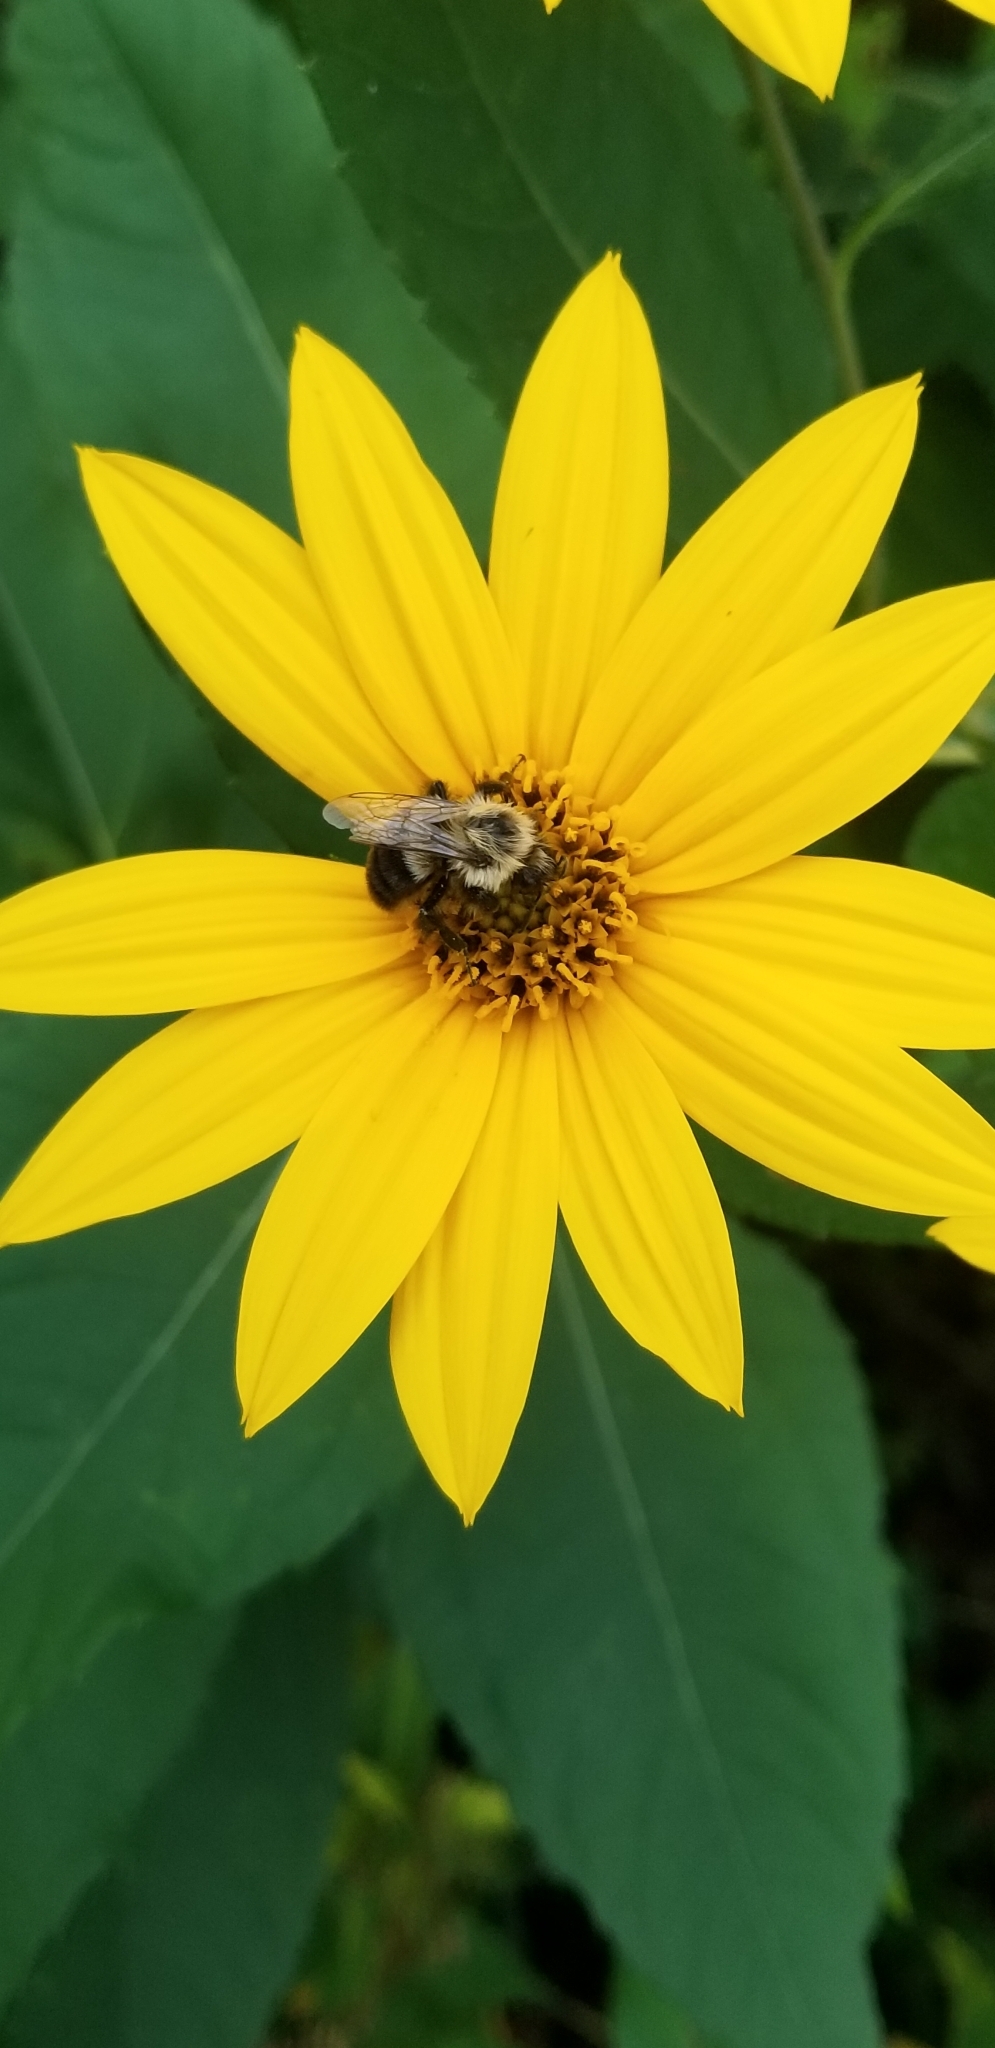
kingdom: Animalia
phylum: Arthropoda
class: Insecta
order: Hymenoptera
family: Apidae
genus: Bombus
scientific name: Bombus impatiens
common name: Common eastern bumble bee
